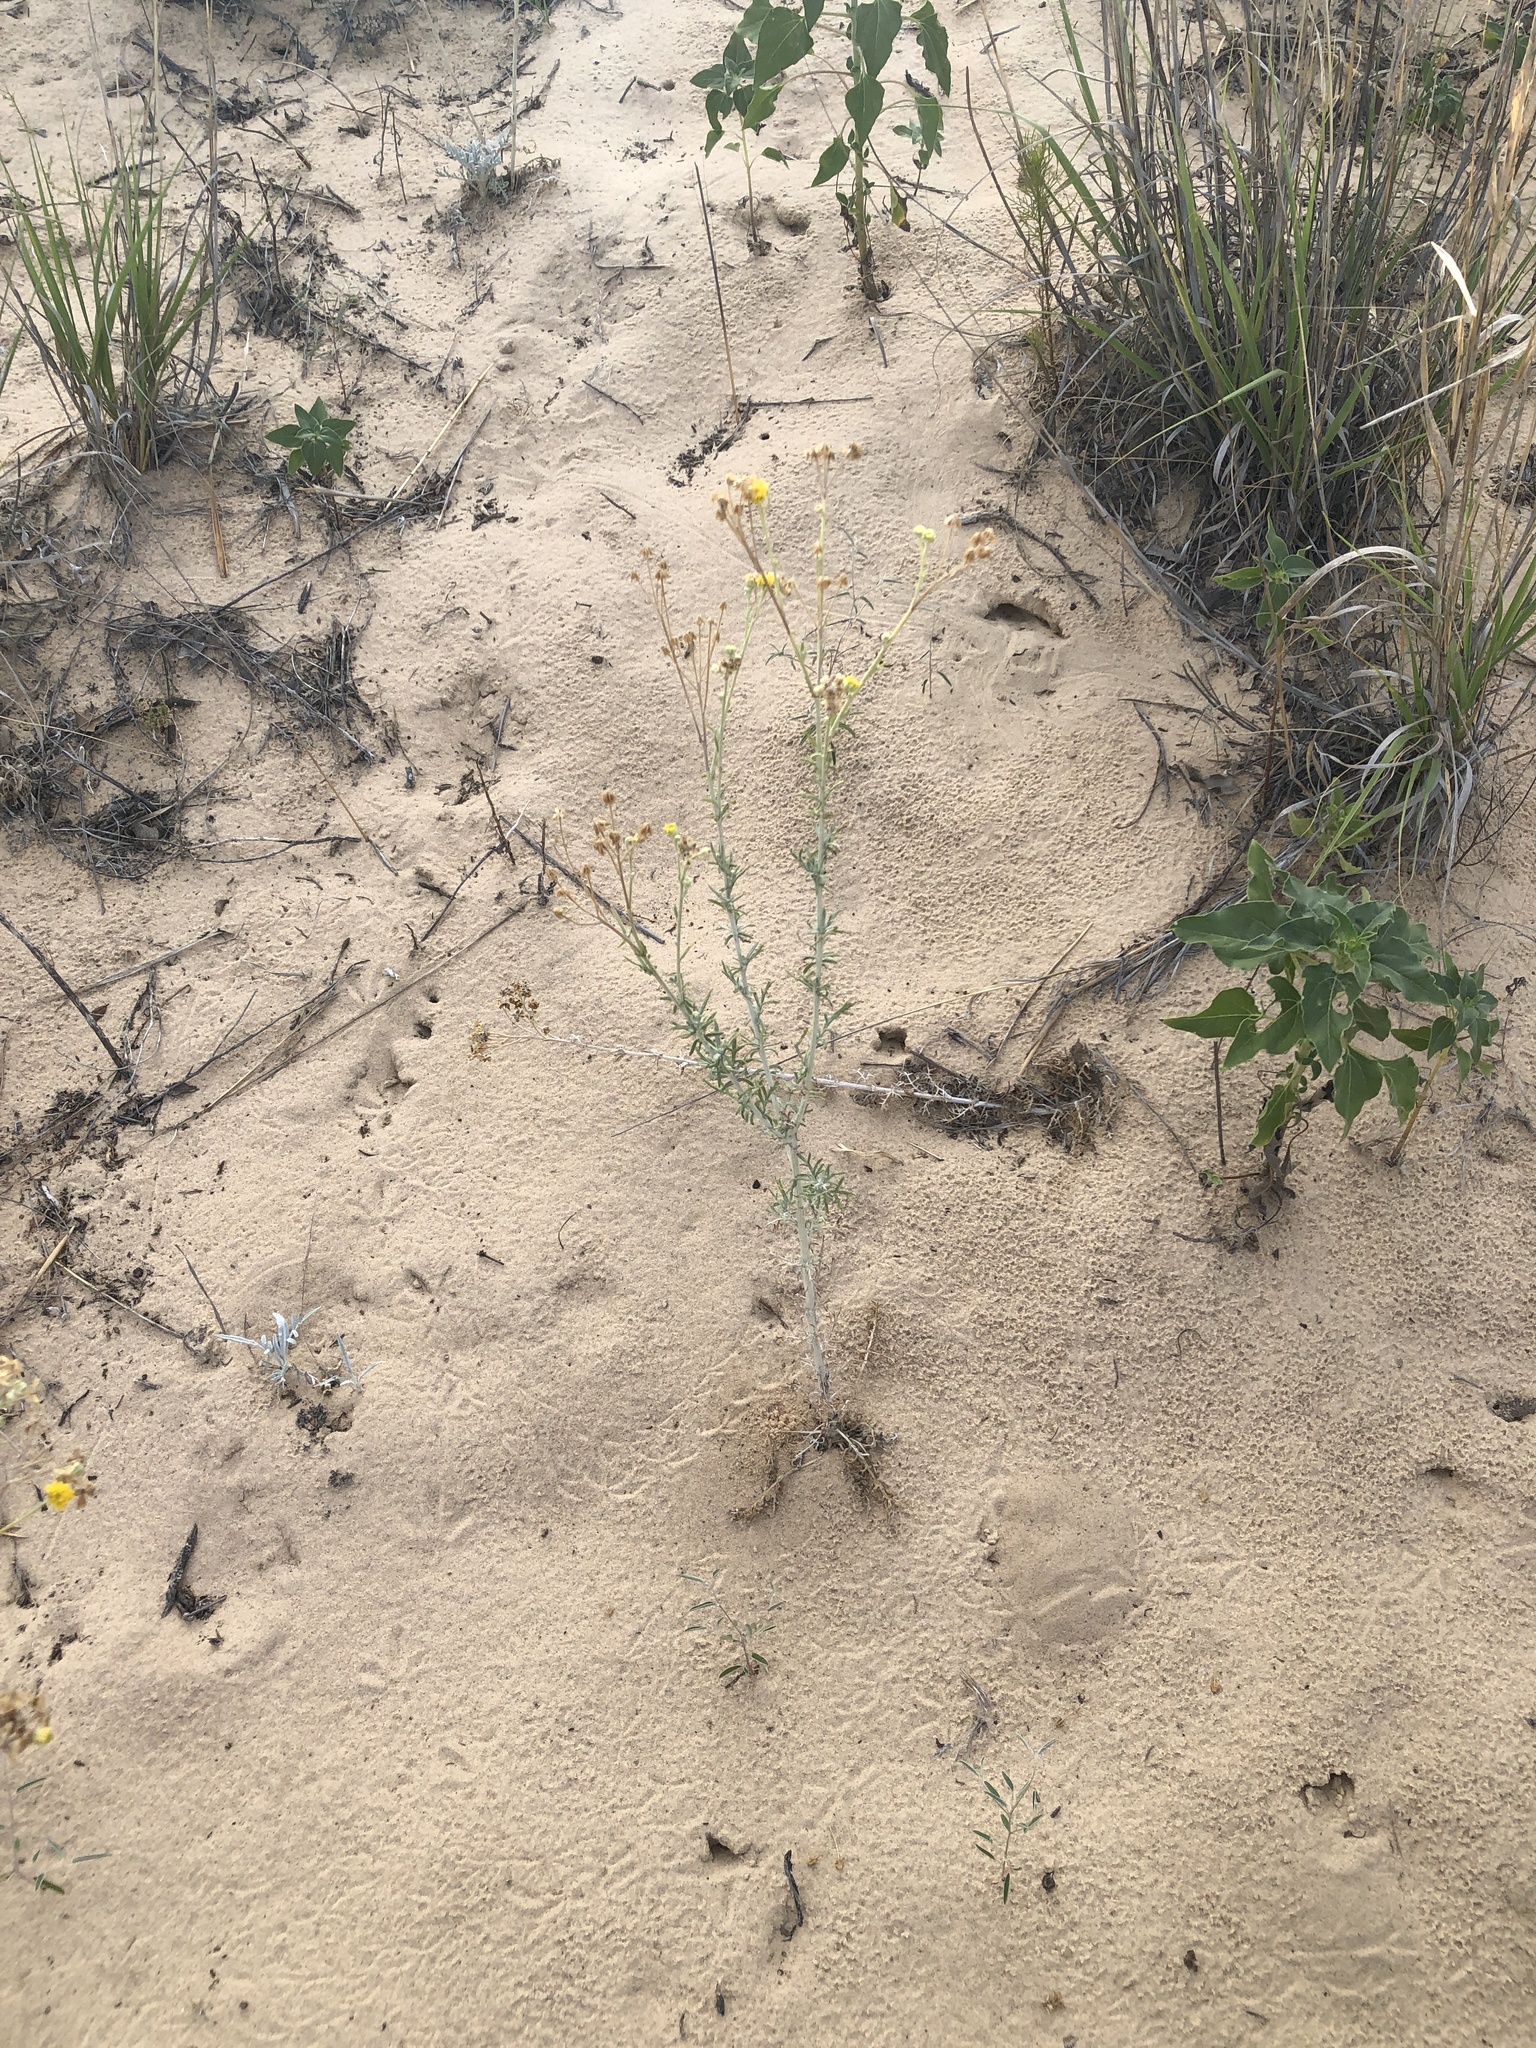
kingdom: Plantae
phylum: Tracheophyta
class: Magnoliopsida
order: Asterales
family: Asteraceae
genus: Hymenopappus
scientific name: Hymenopappus flavescens
